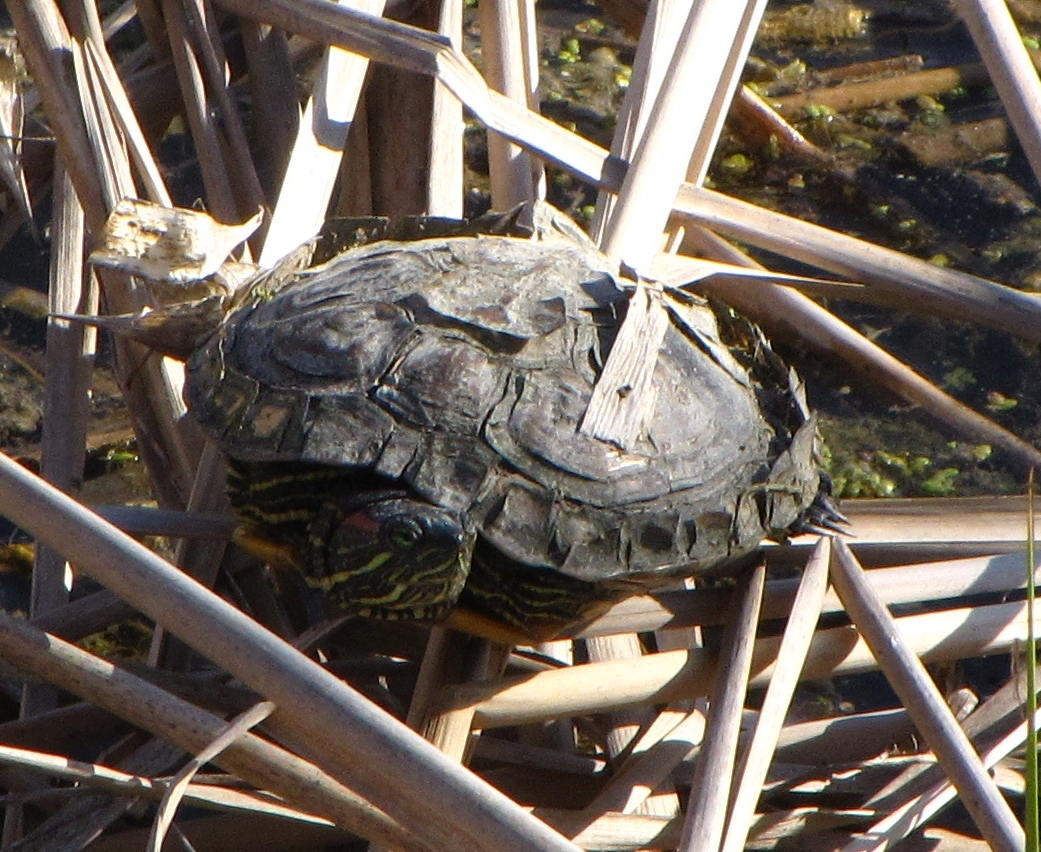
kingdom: Animalia
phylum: Chordata
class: Testudines
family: Emydidae
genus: Trachemys
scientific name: Trachemys scripta
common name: Slider
